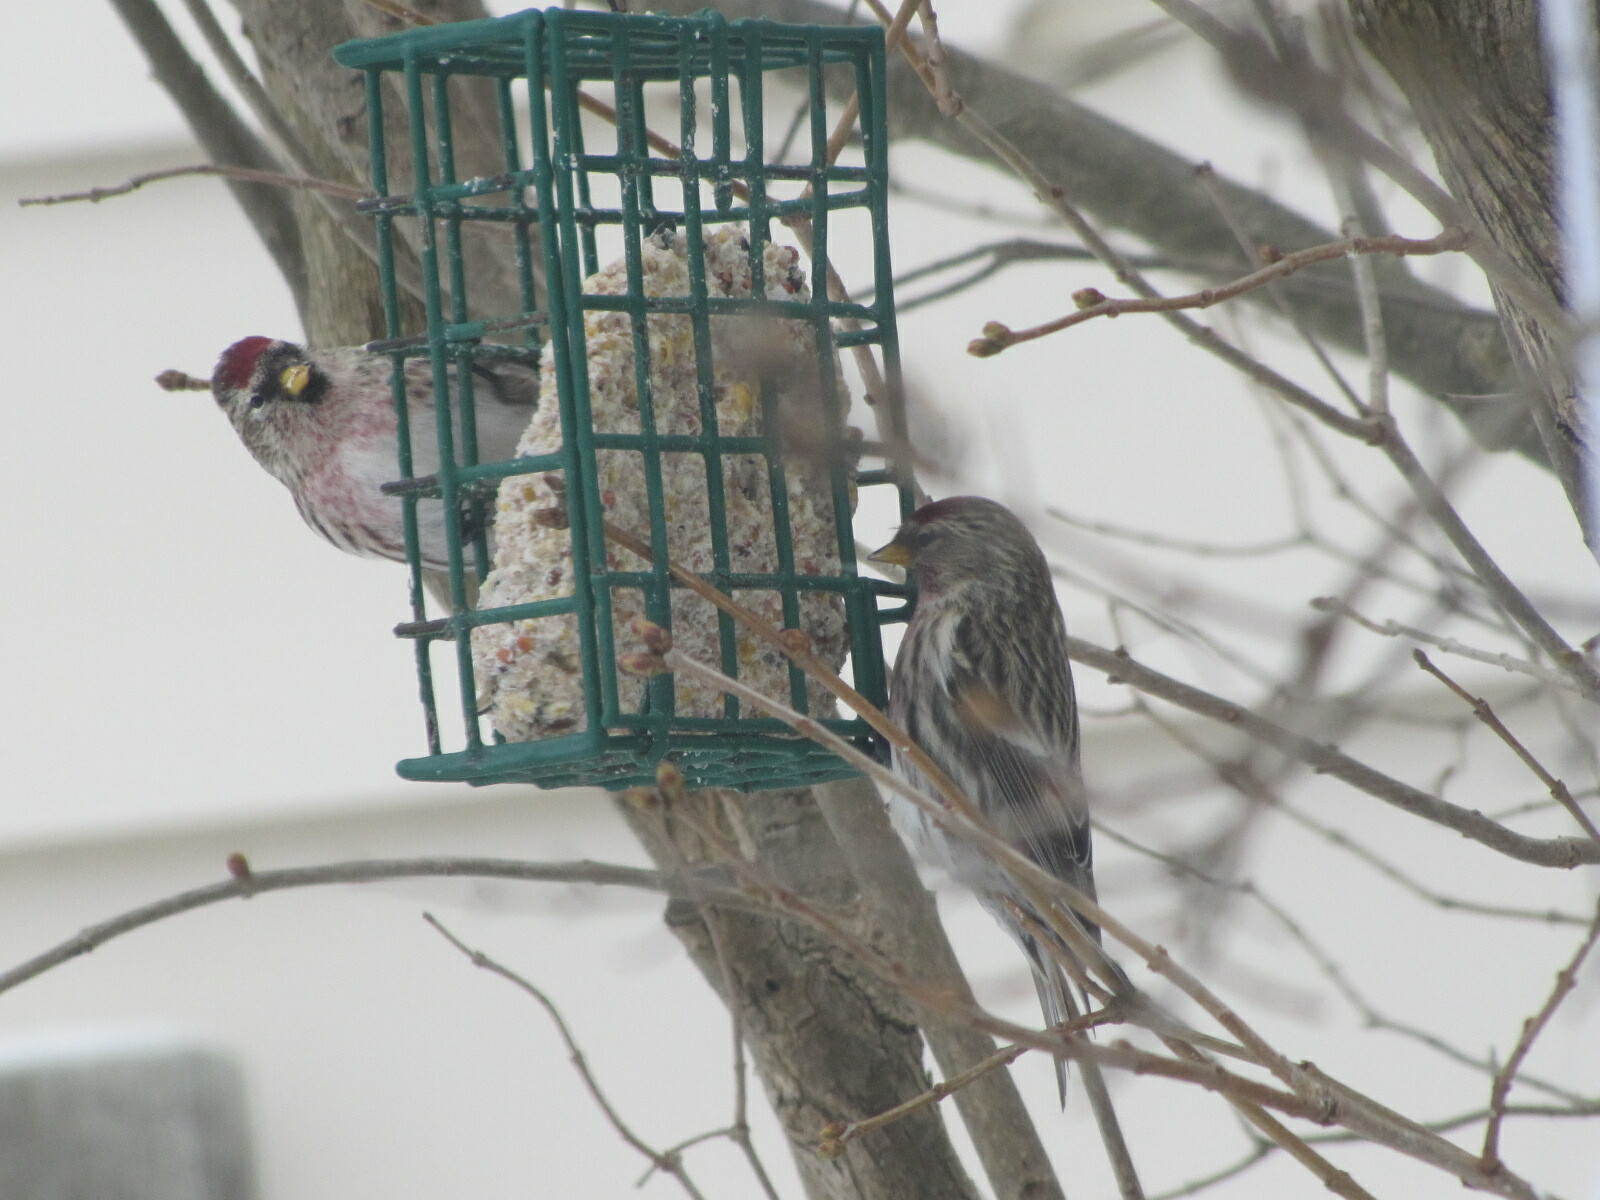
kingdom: Animalia
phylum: Chordata
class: Aves
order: Passeriformes
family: Fringillidae
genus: Acanthis
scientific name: Acanthis flammea
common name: Common redpoll
